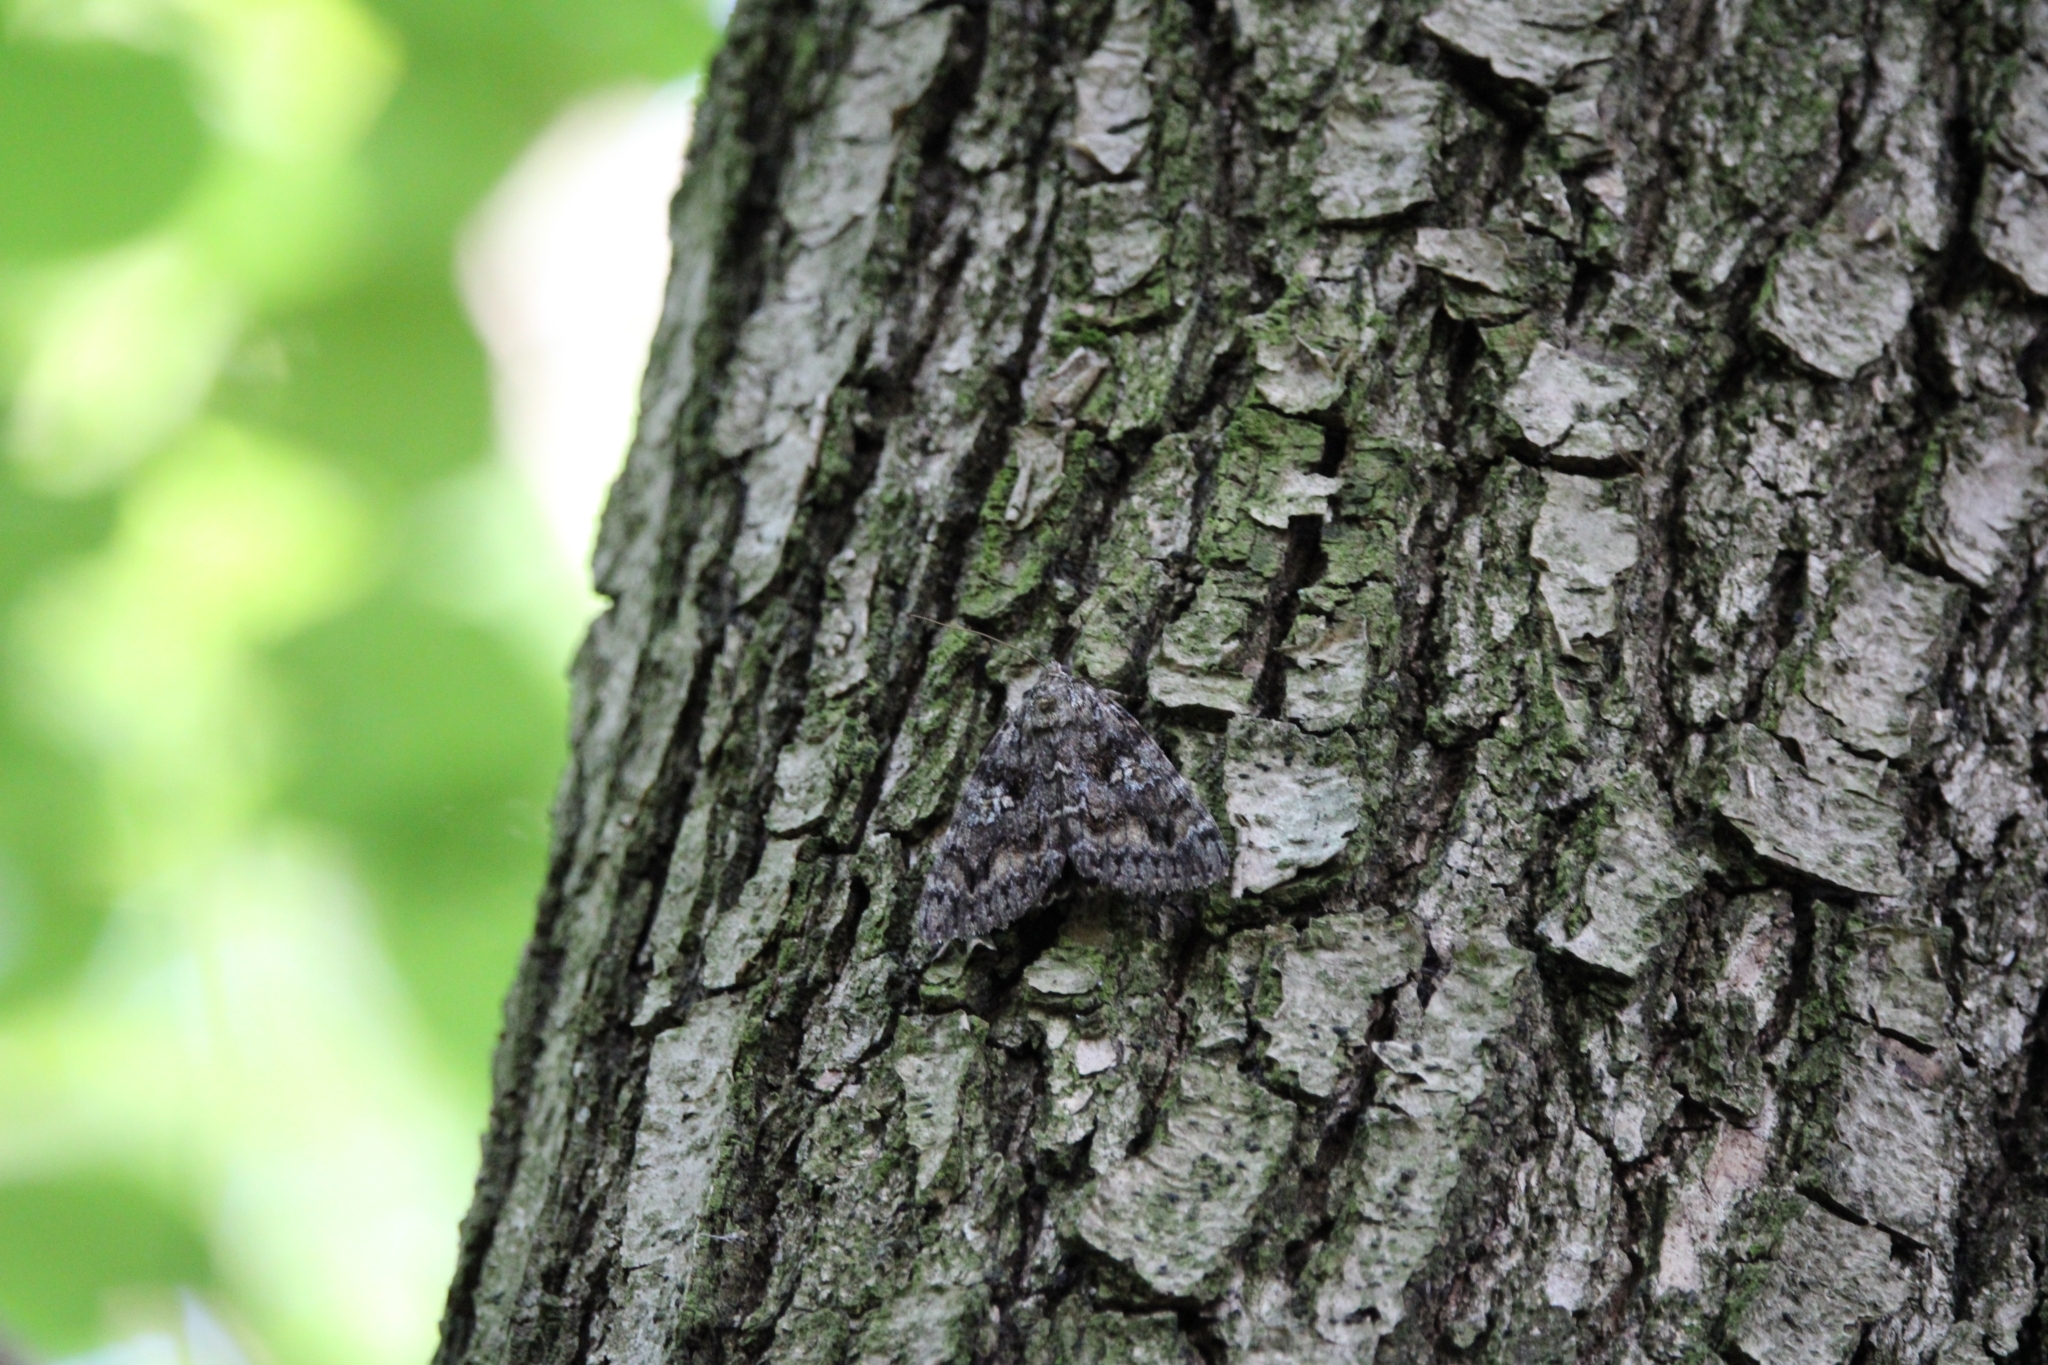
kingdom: Animalia
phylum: Arthropoda
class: Insecta
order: Lepidoptera
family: Erebidae
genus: Catocala
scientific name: Catocala sponsa
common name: Dark crimson underwing
